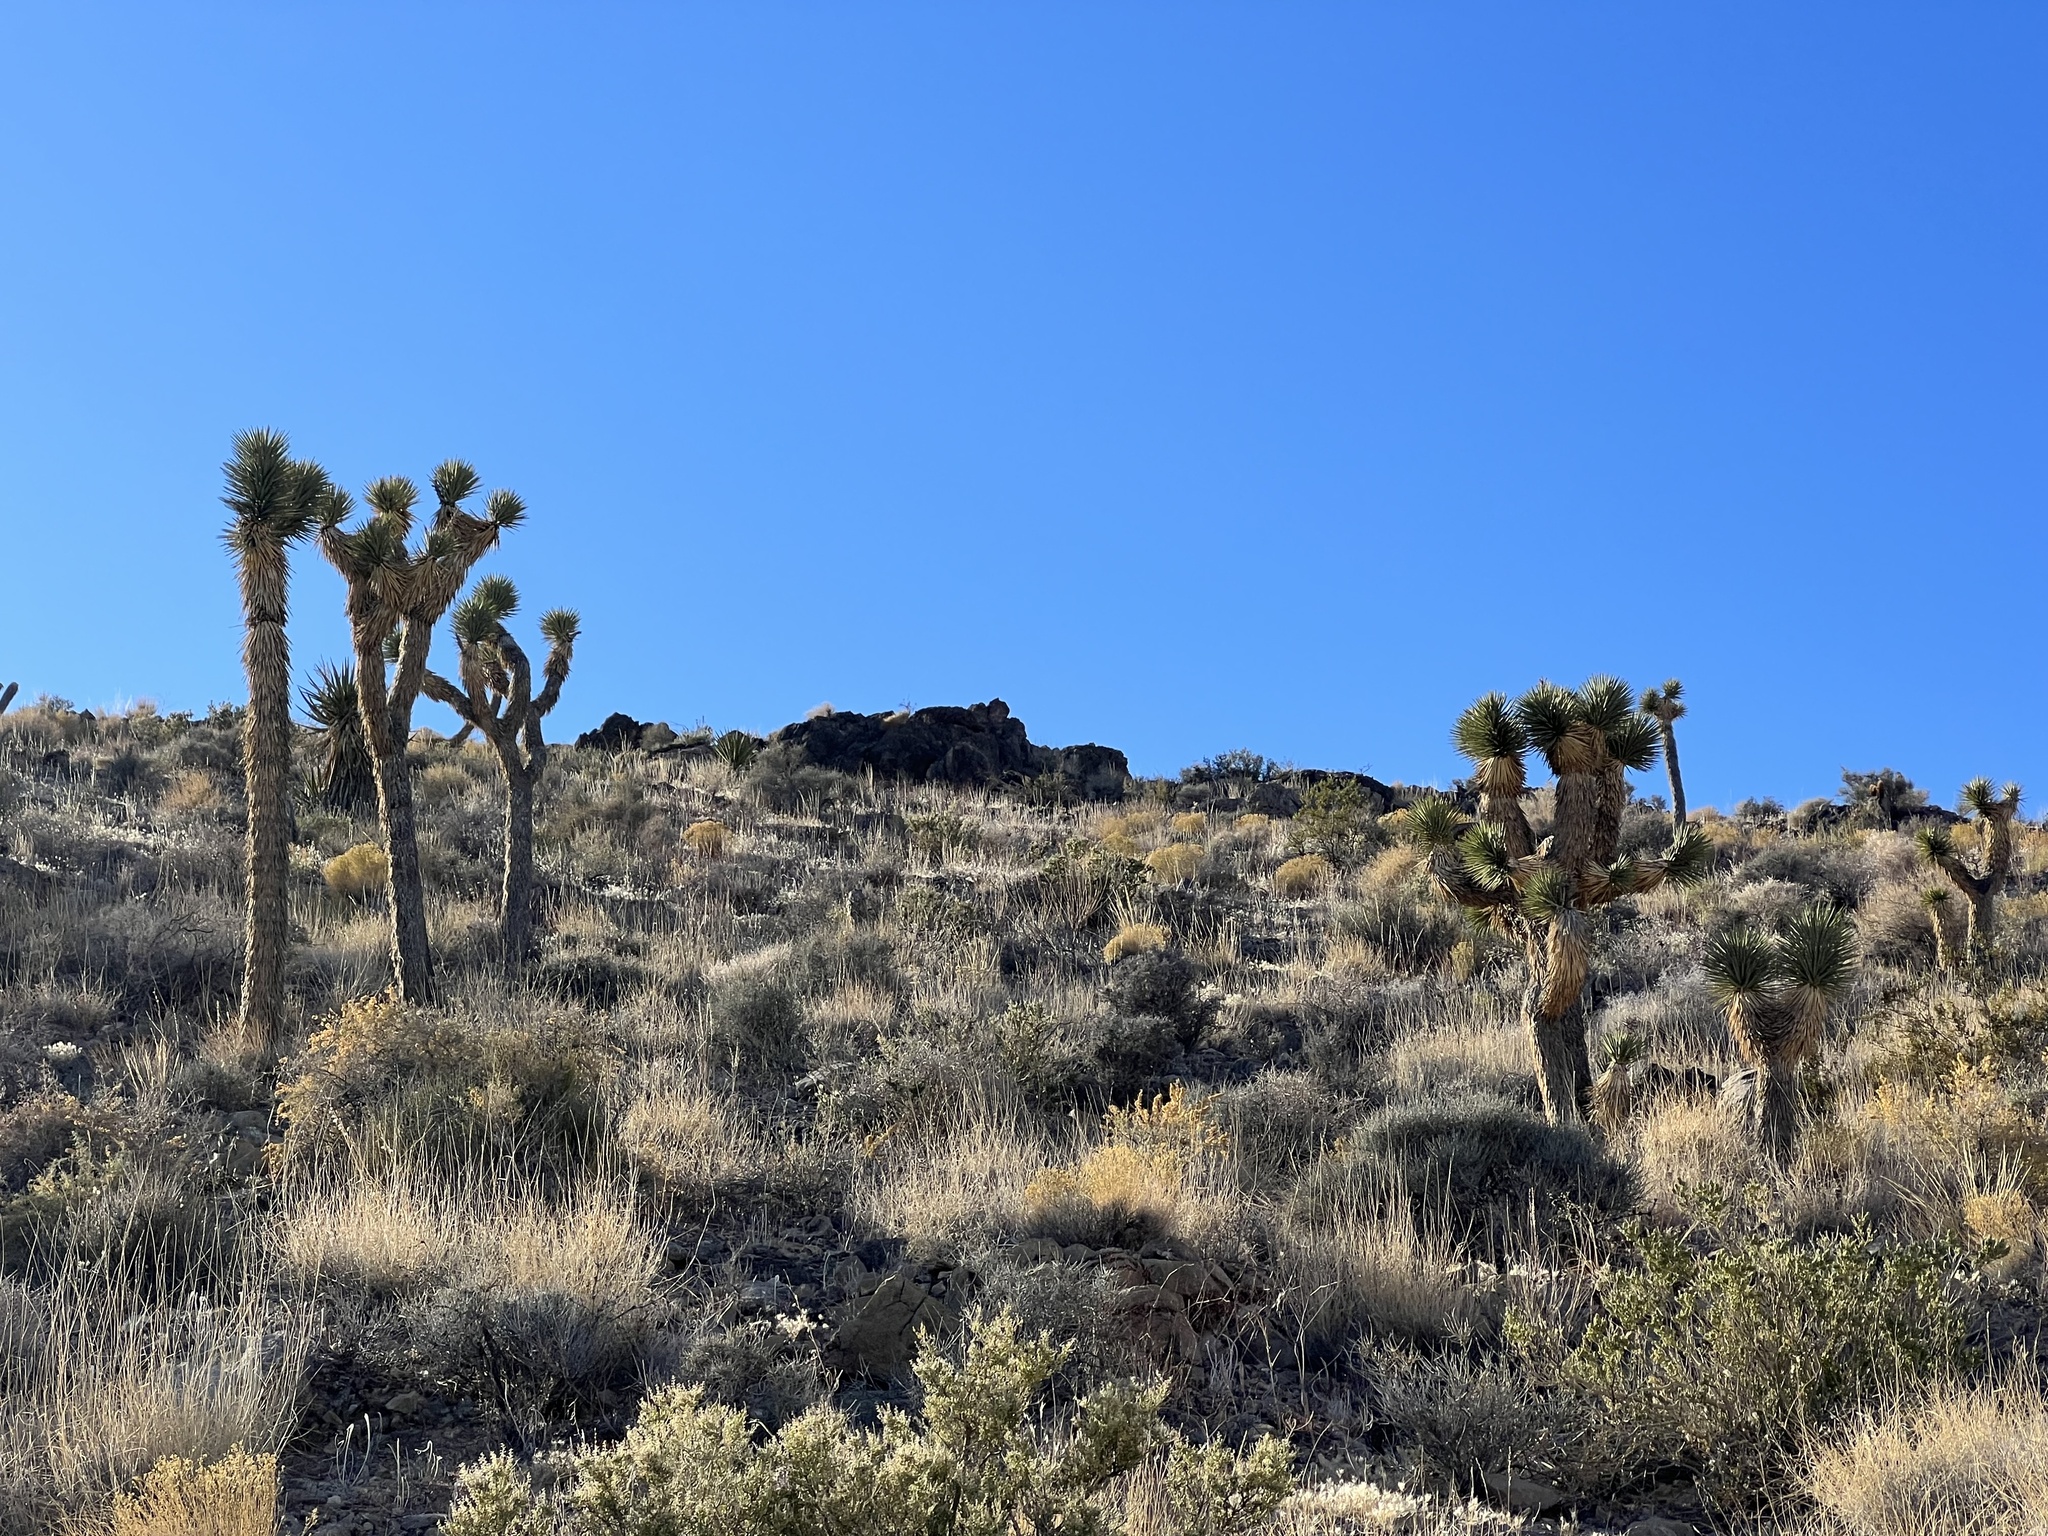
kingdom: Plantae
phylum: Tracheophyta
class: Liliopsida
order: Asparagales
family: Asparagaceae
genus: Yucca
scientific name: Yucca brevifolia
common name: Joshua tree
